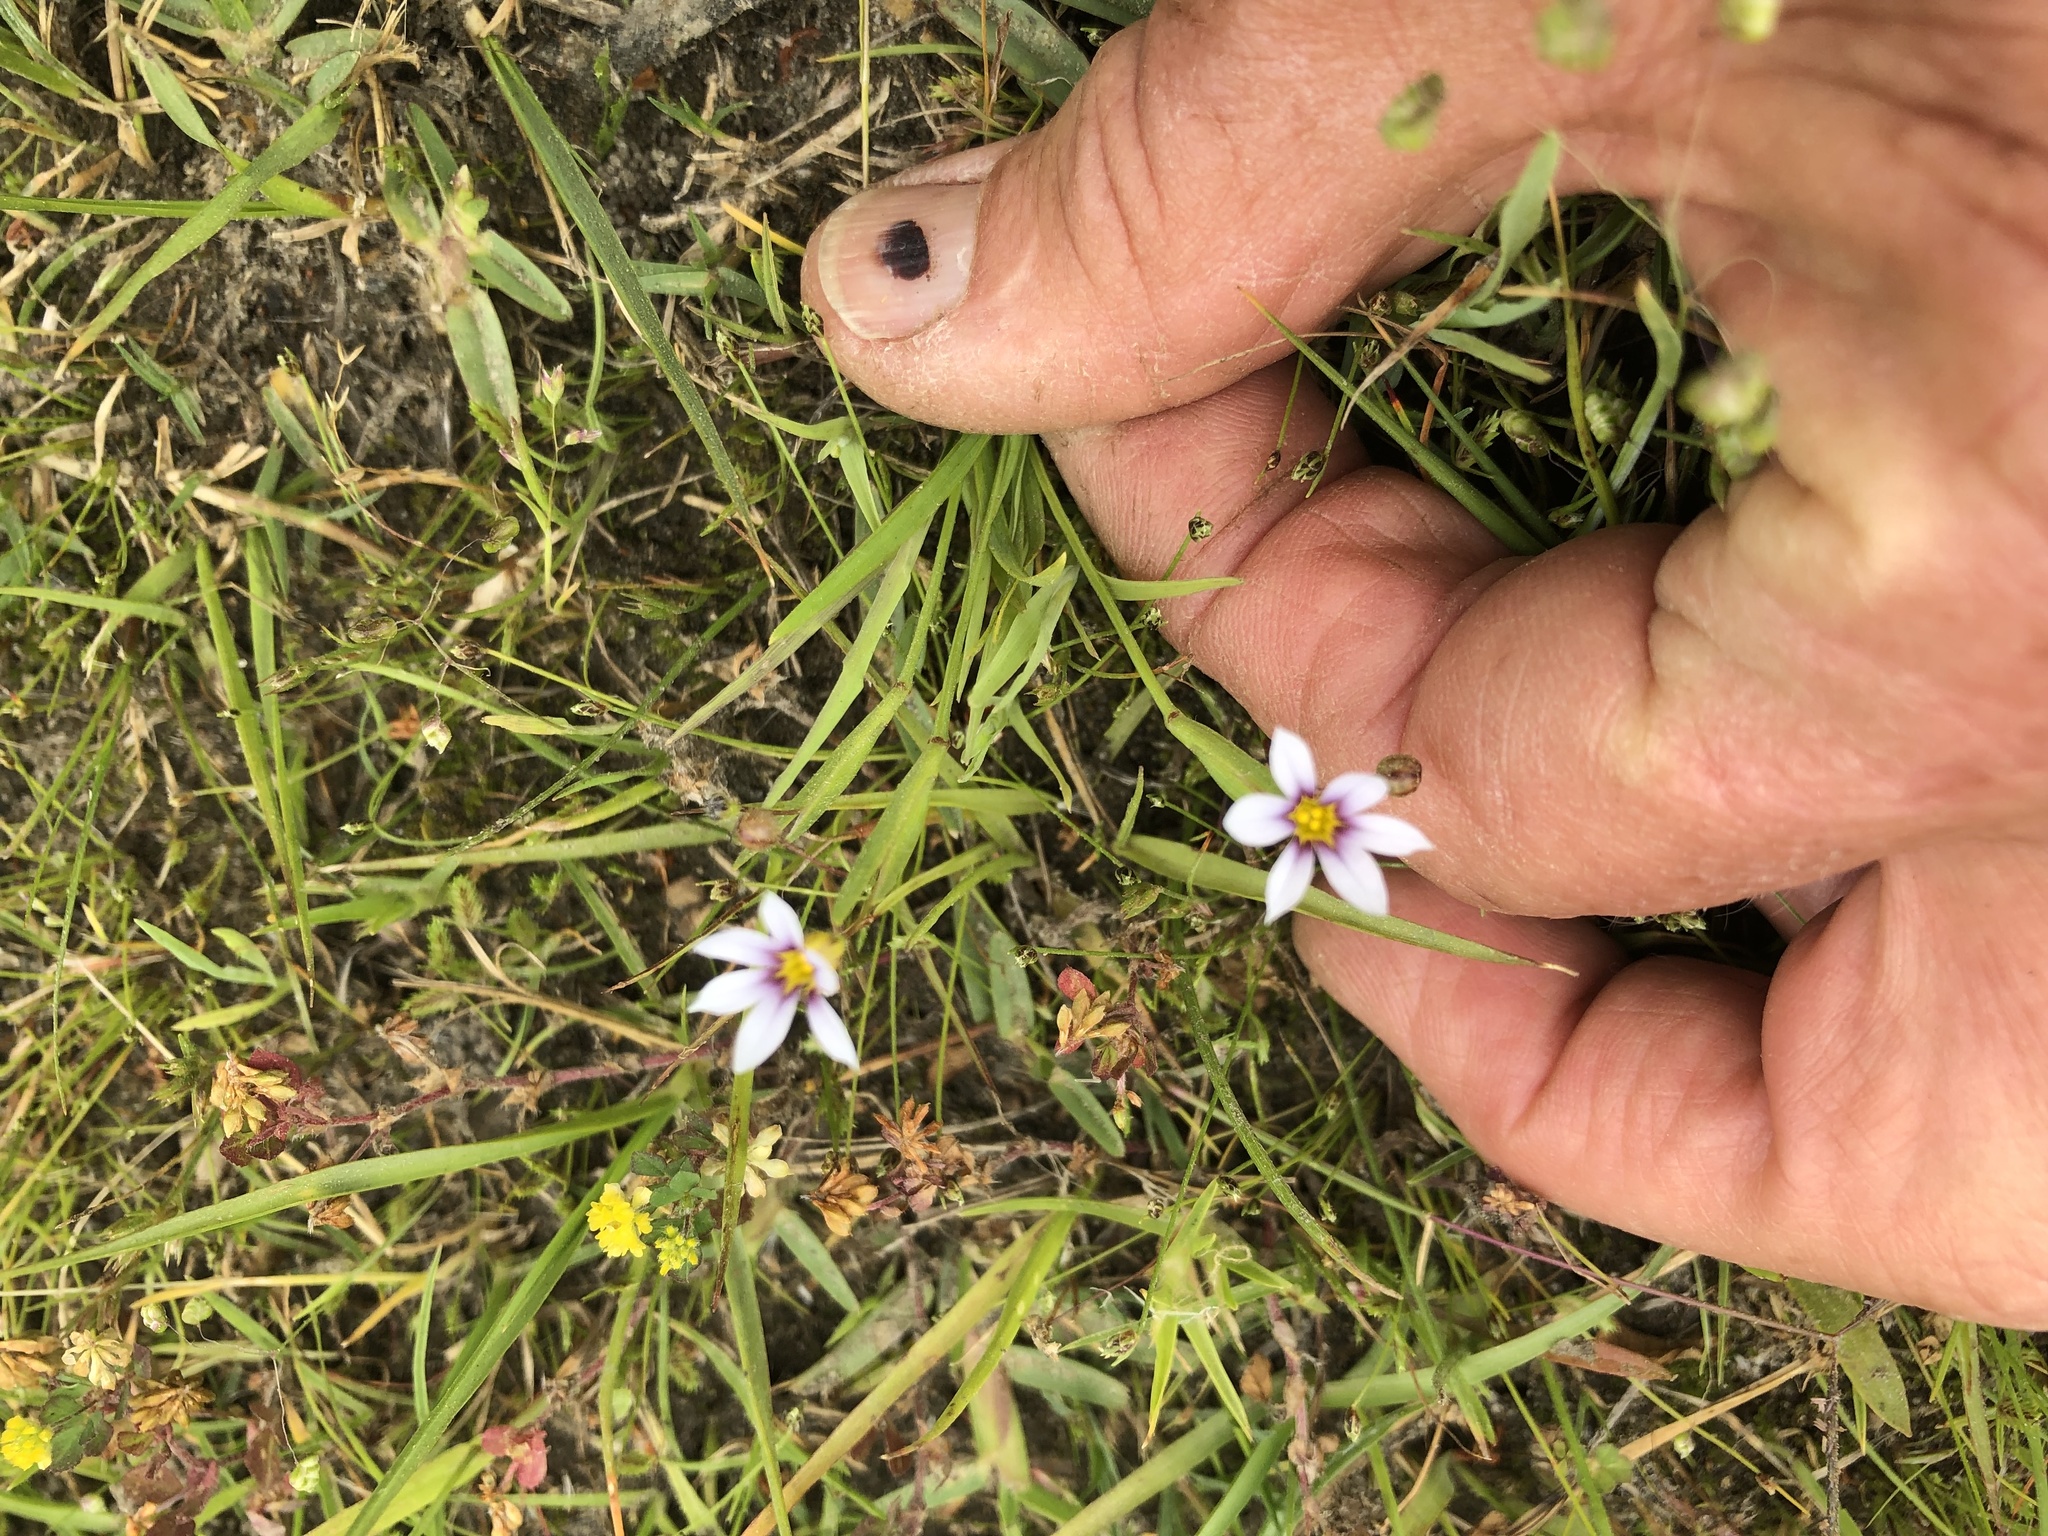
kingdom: Plantae
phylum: Tracheophyta
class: Liliopsida
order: Asparagales
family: Iridaceae
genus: Sisyrinchium
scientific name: Sisyrinchium micranthum
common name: Bermuda pigroot
